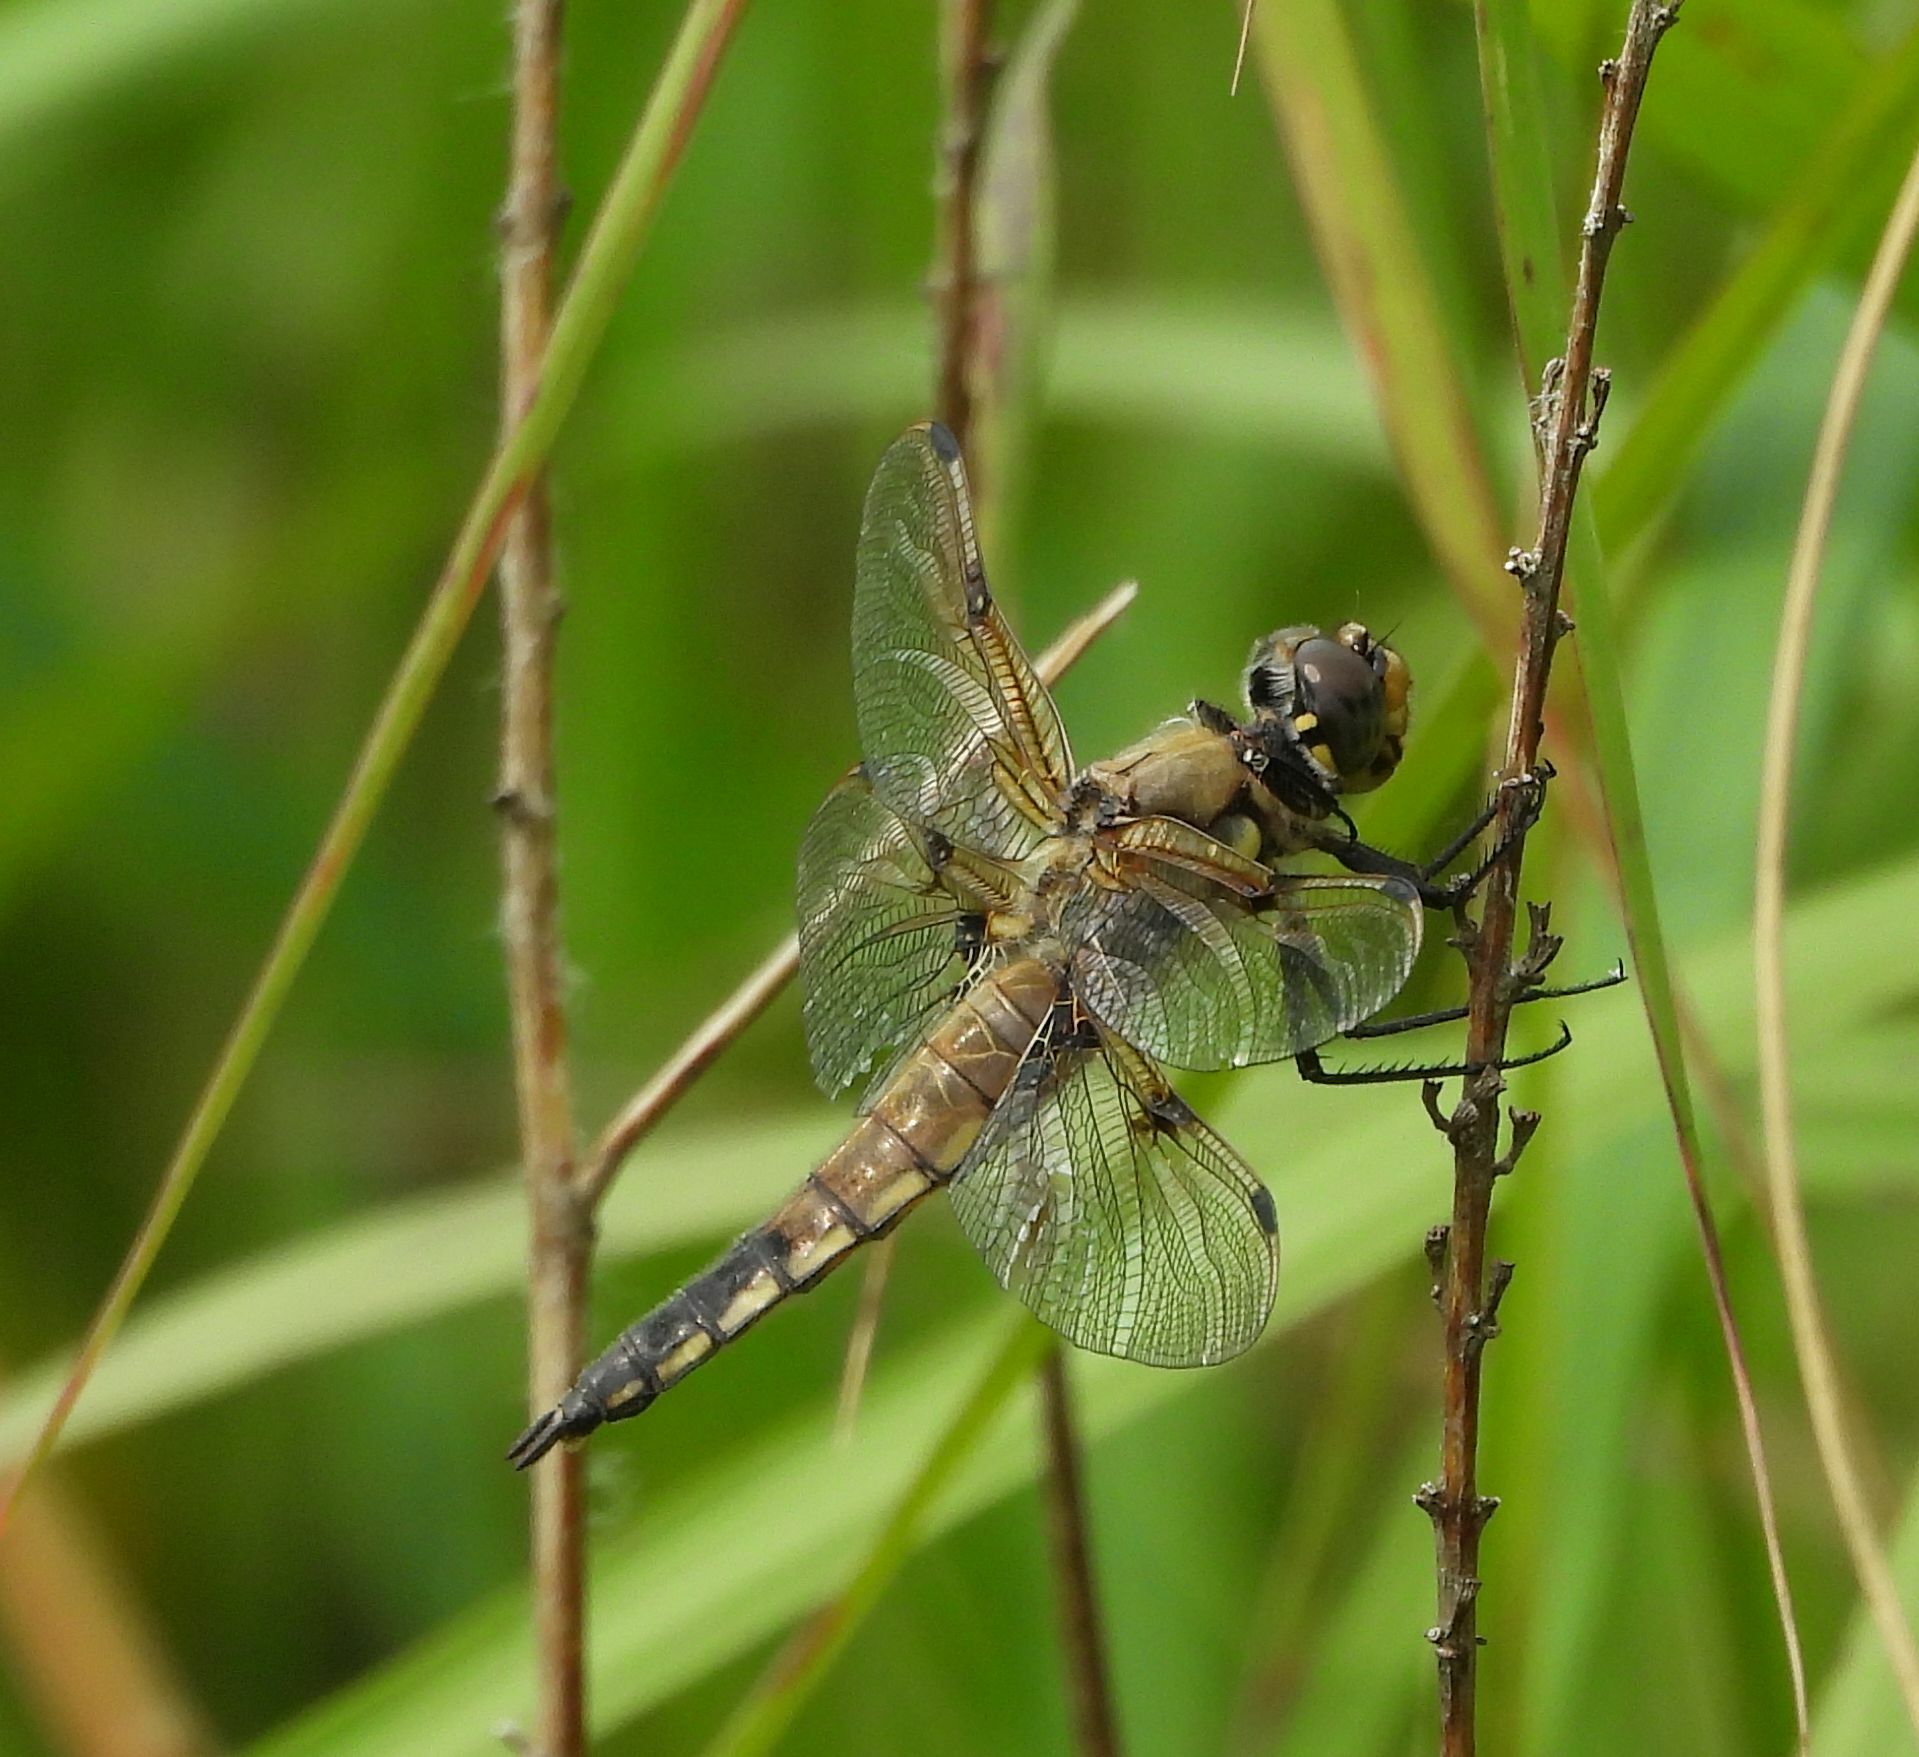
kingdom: Animalia
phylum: Arthropoda
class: Insecta
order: Odonata
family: Libellulidae
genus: Libellula
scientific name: Libellula quadrimaculata
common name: Four-spotted chaser
